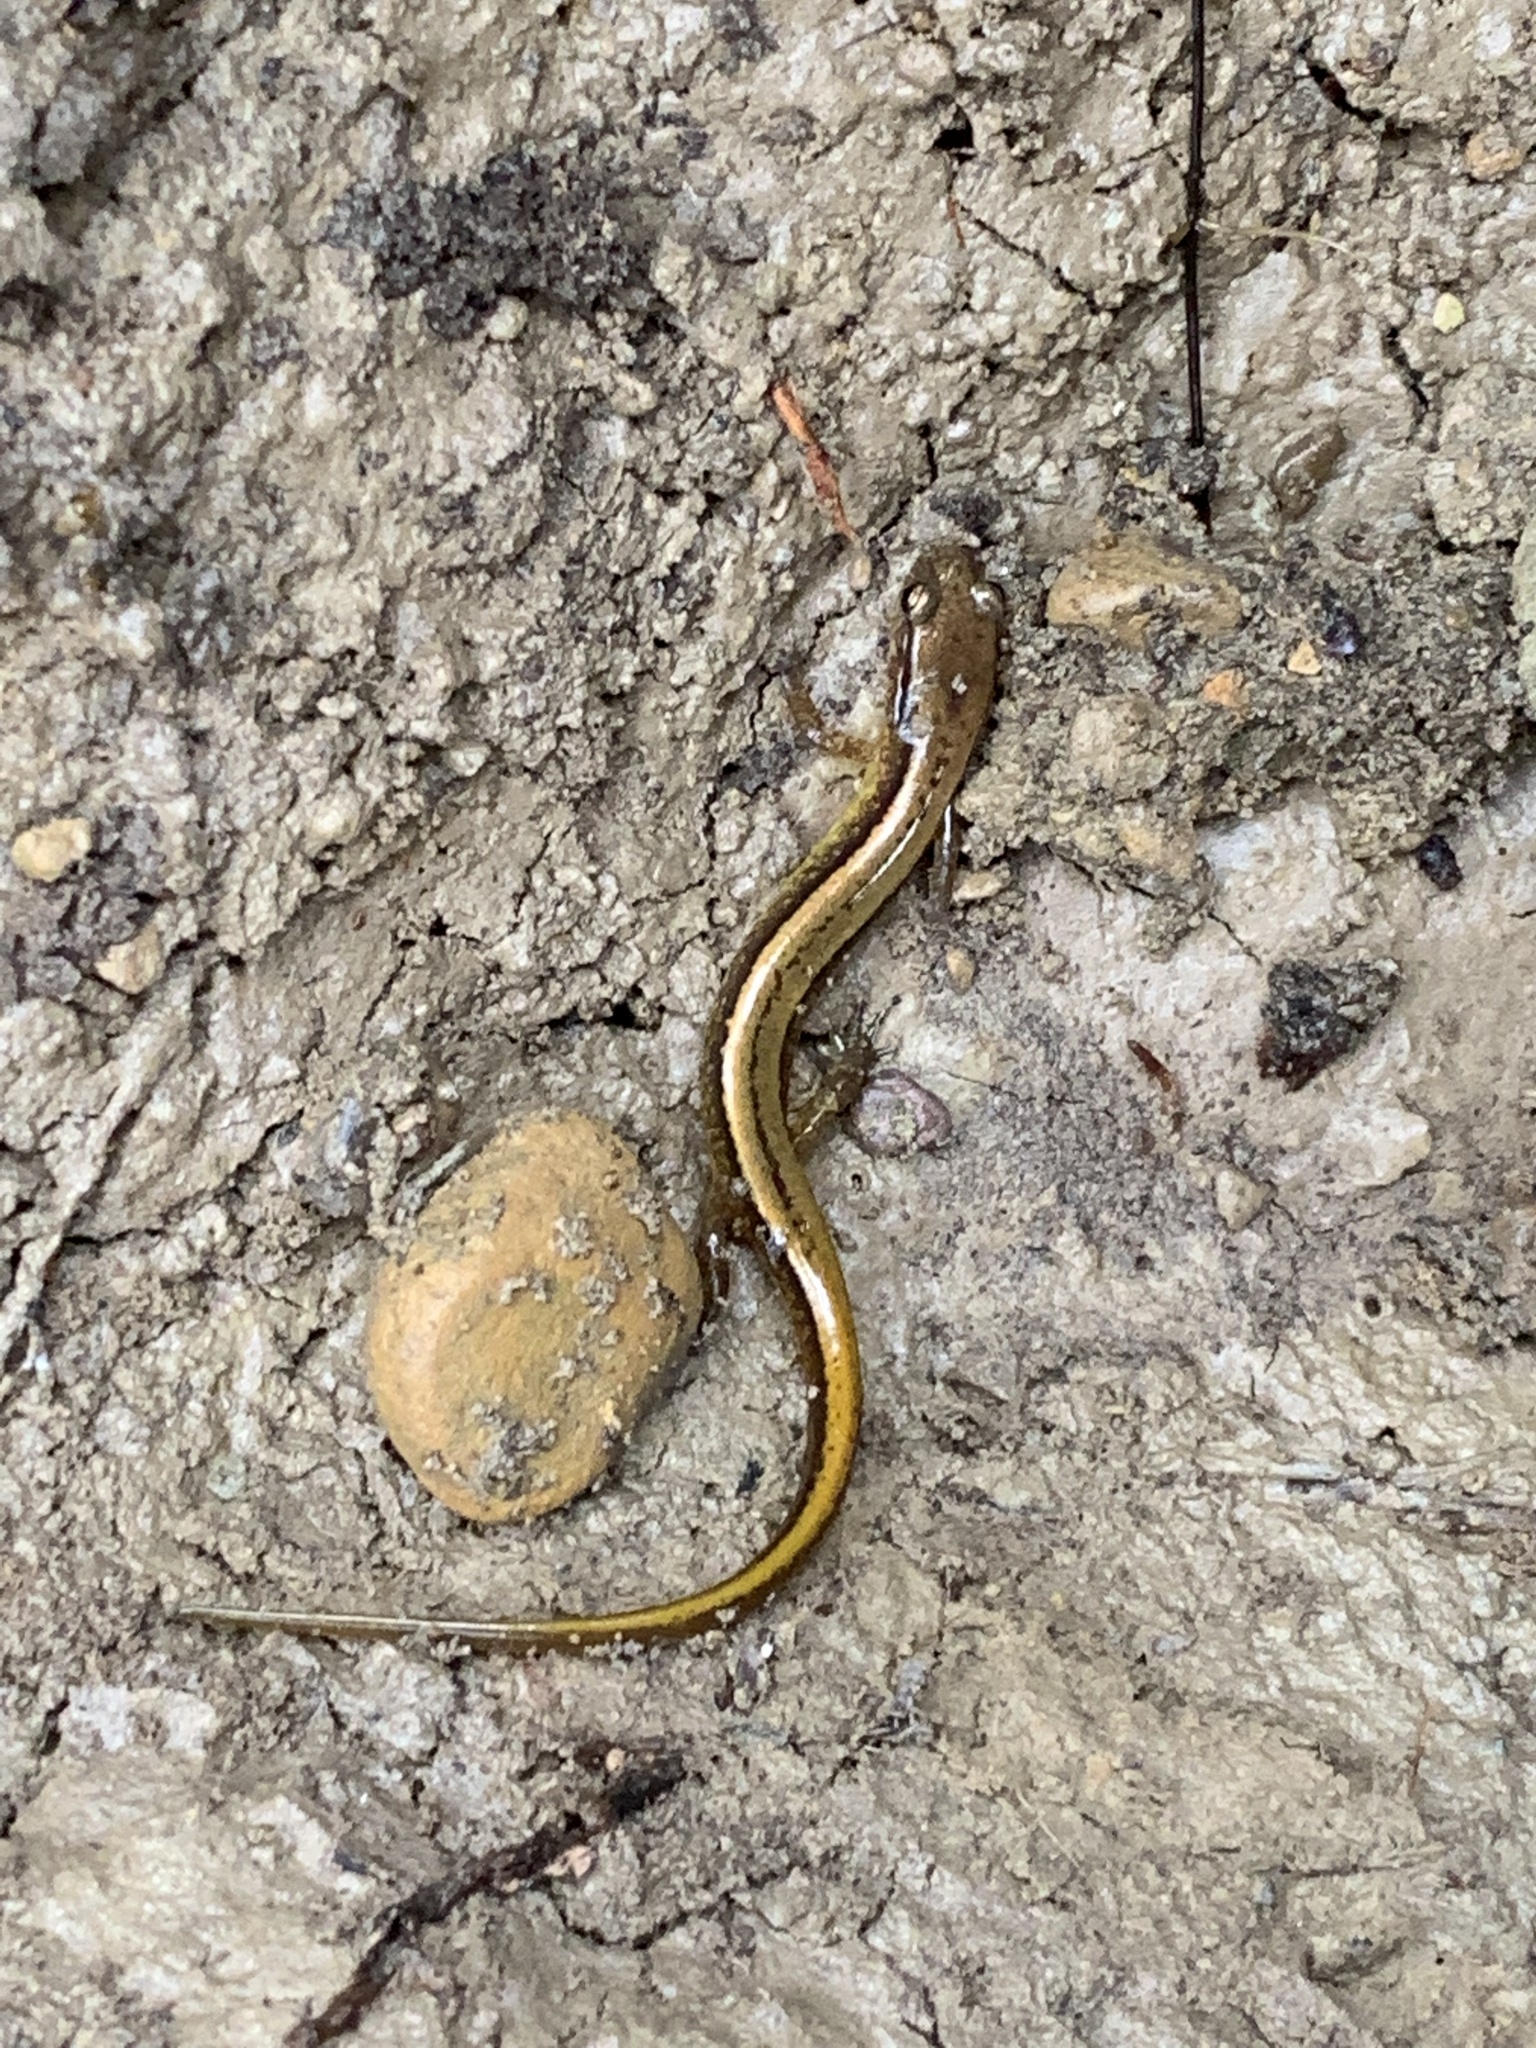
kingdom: Animalia
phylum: Chordata
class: Amphibia
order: Caudata
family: Plethodontidae
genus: Eurycea
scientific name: Eurycea cirrigera
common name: Southern two-lined salamander
